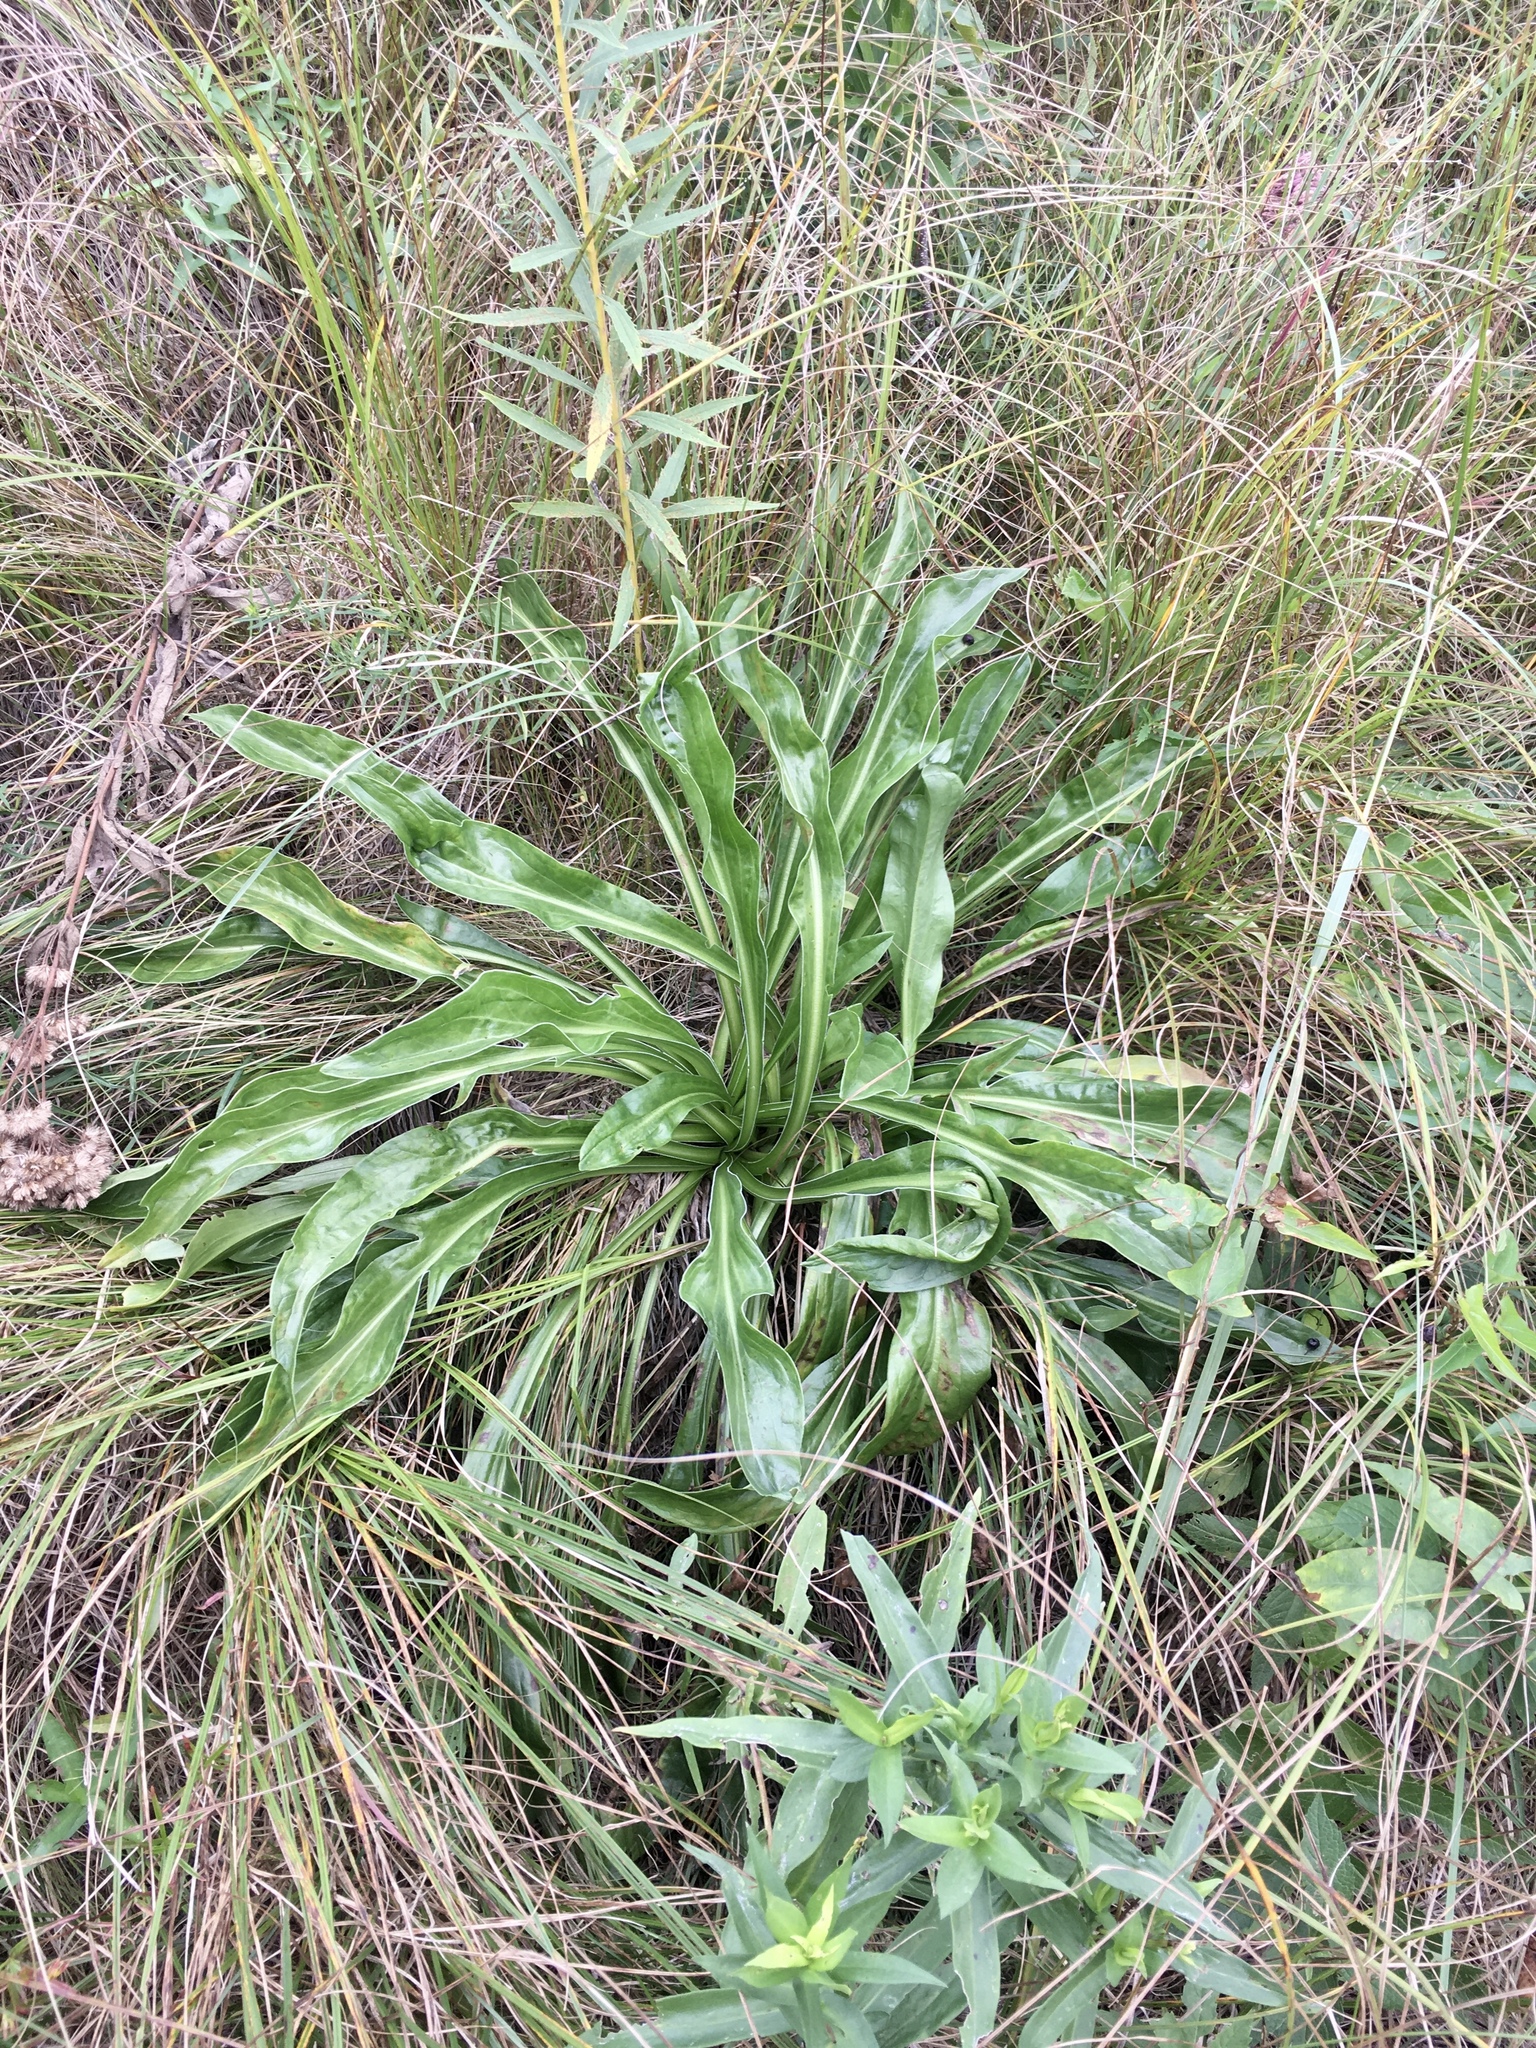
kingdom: Plantae
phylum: Tracheophyta
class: Magnoliopsida
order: Dipsacales
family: Caprifoliaceae
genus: Valeriana
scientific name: Valeriana edulis
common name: Taproot valerian
